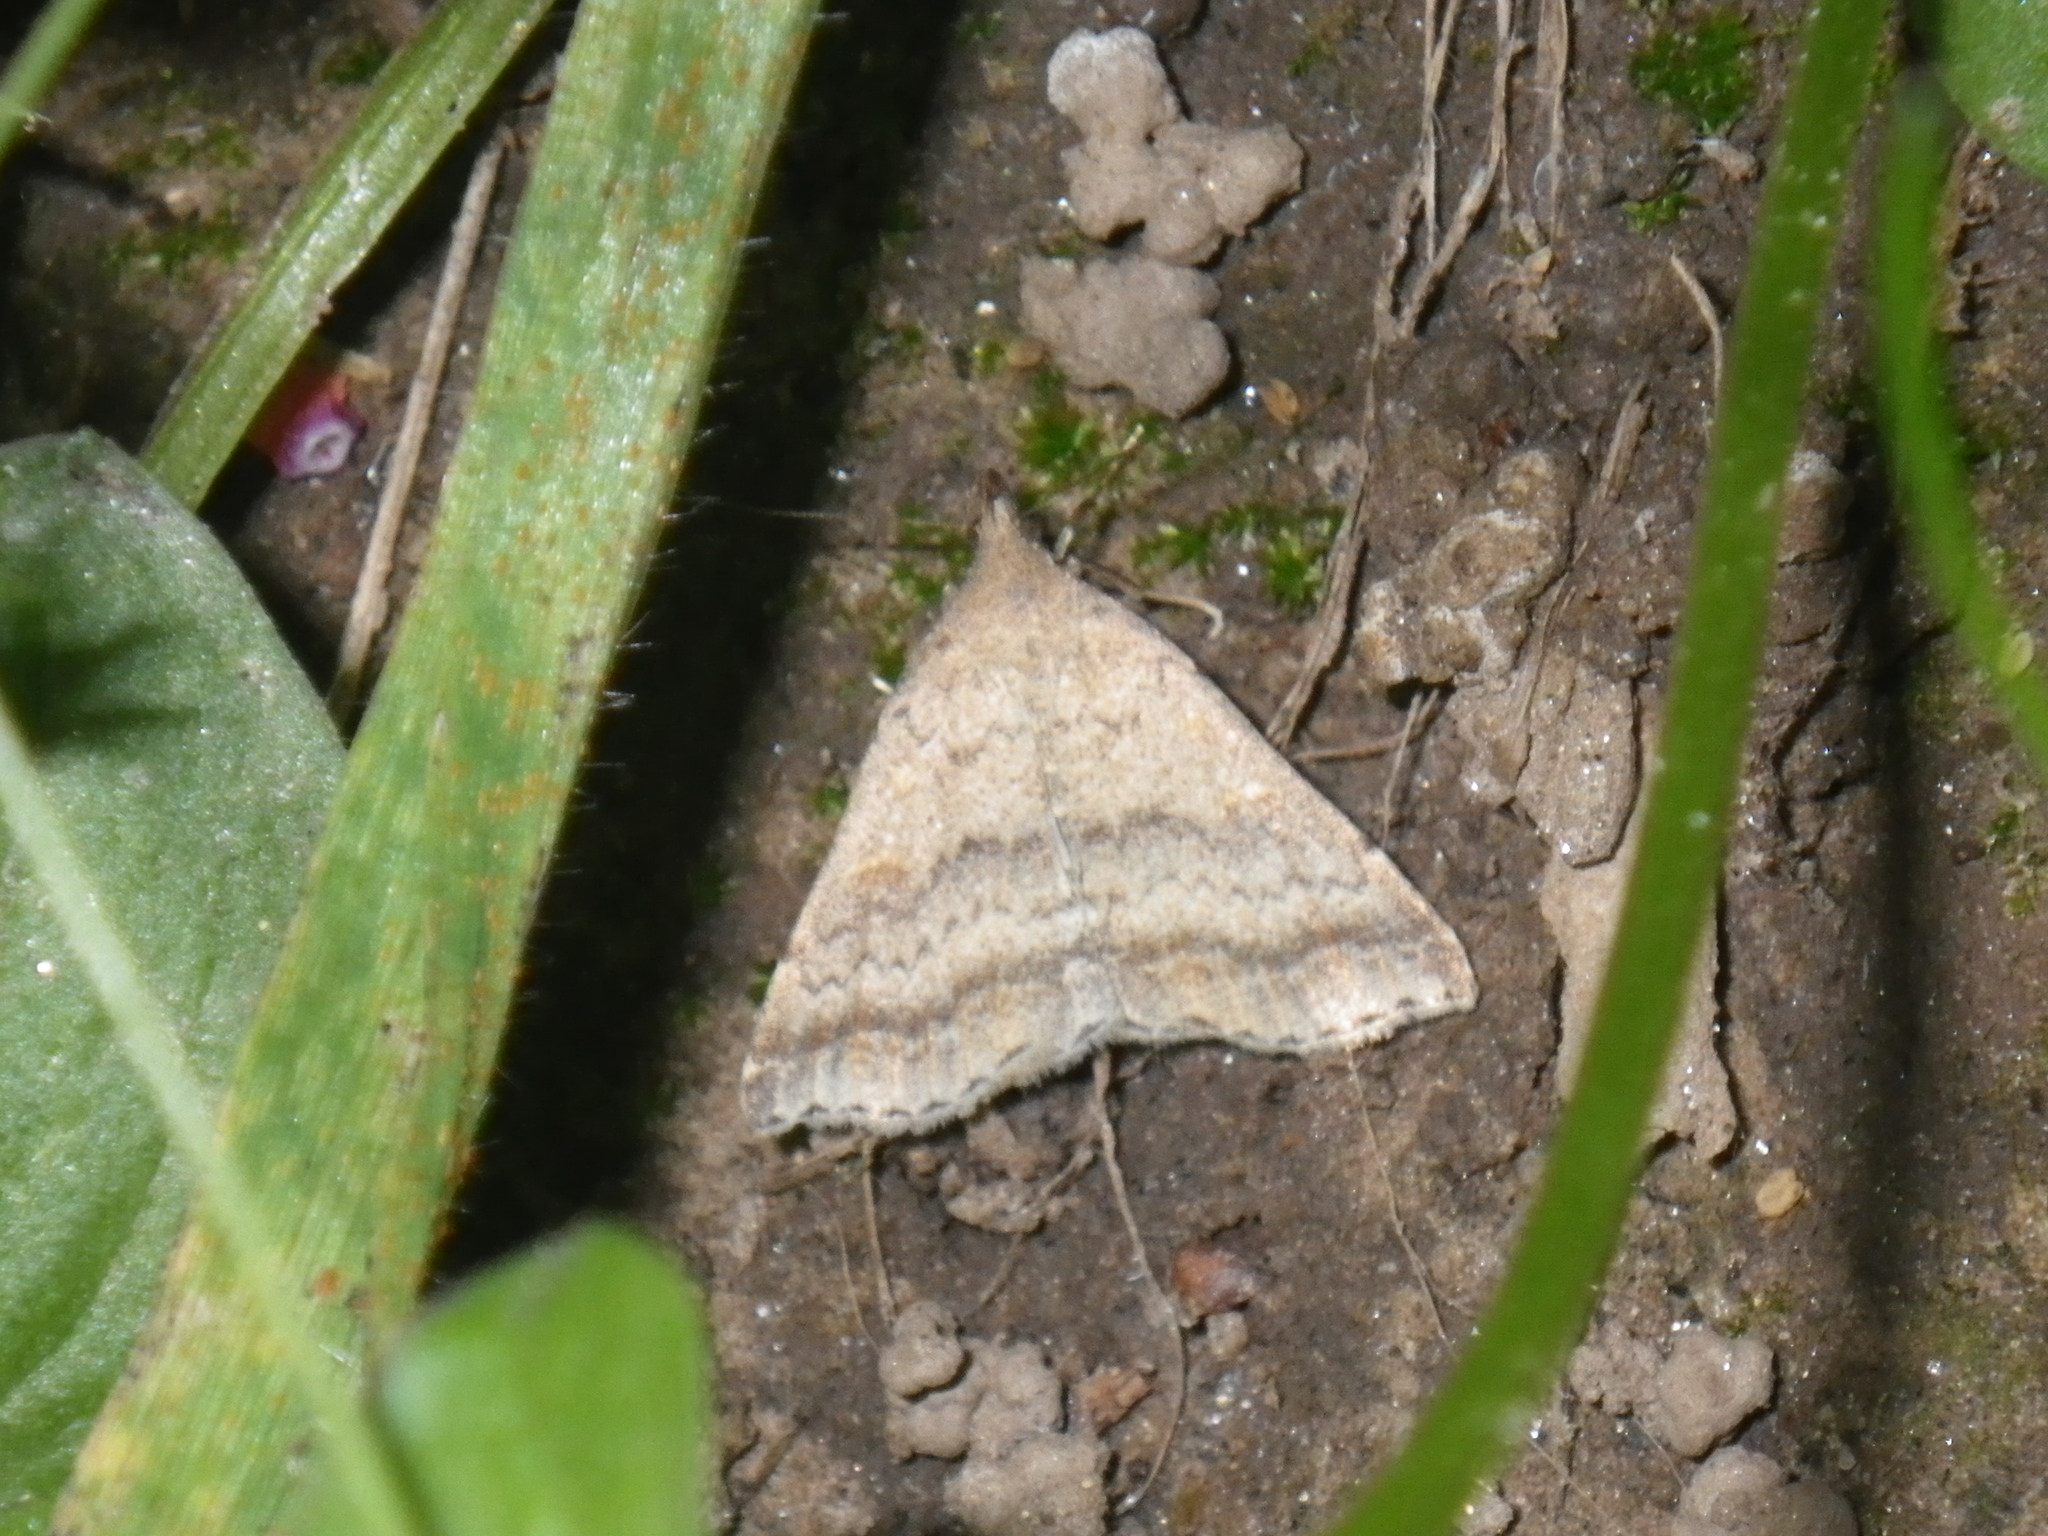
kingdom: Animalia
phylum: Arthropoda
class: Insecta
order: Lepidoptera
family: Erebidae
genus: Tetanolita
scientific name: Tetanolita palligera
